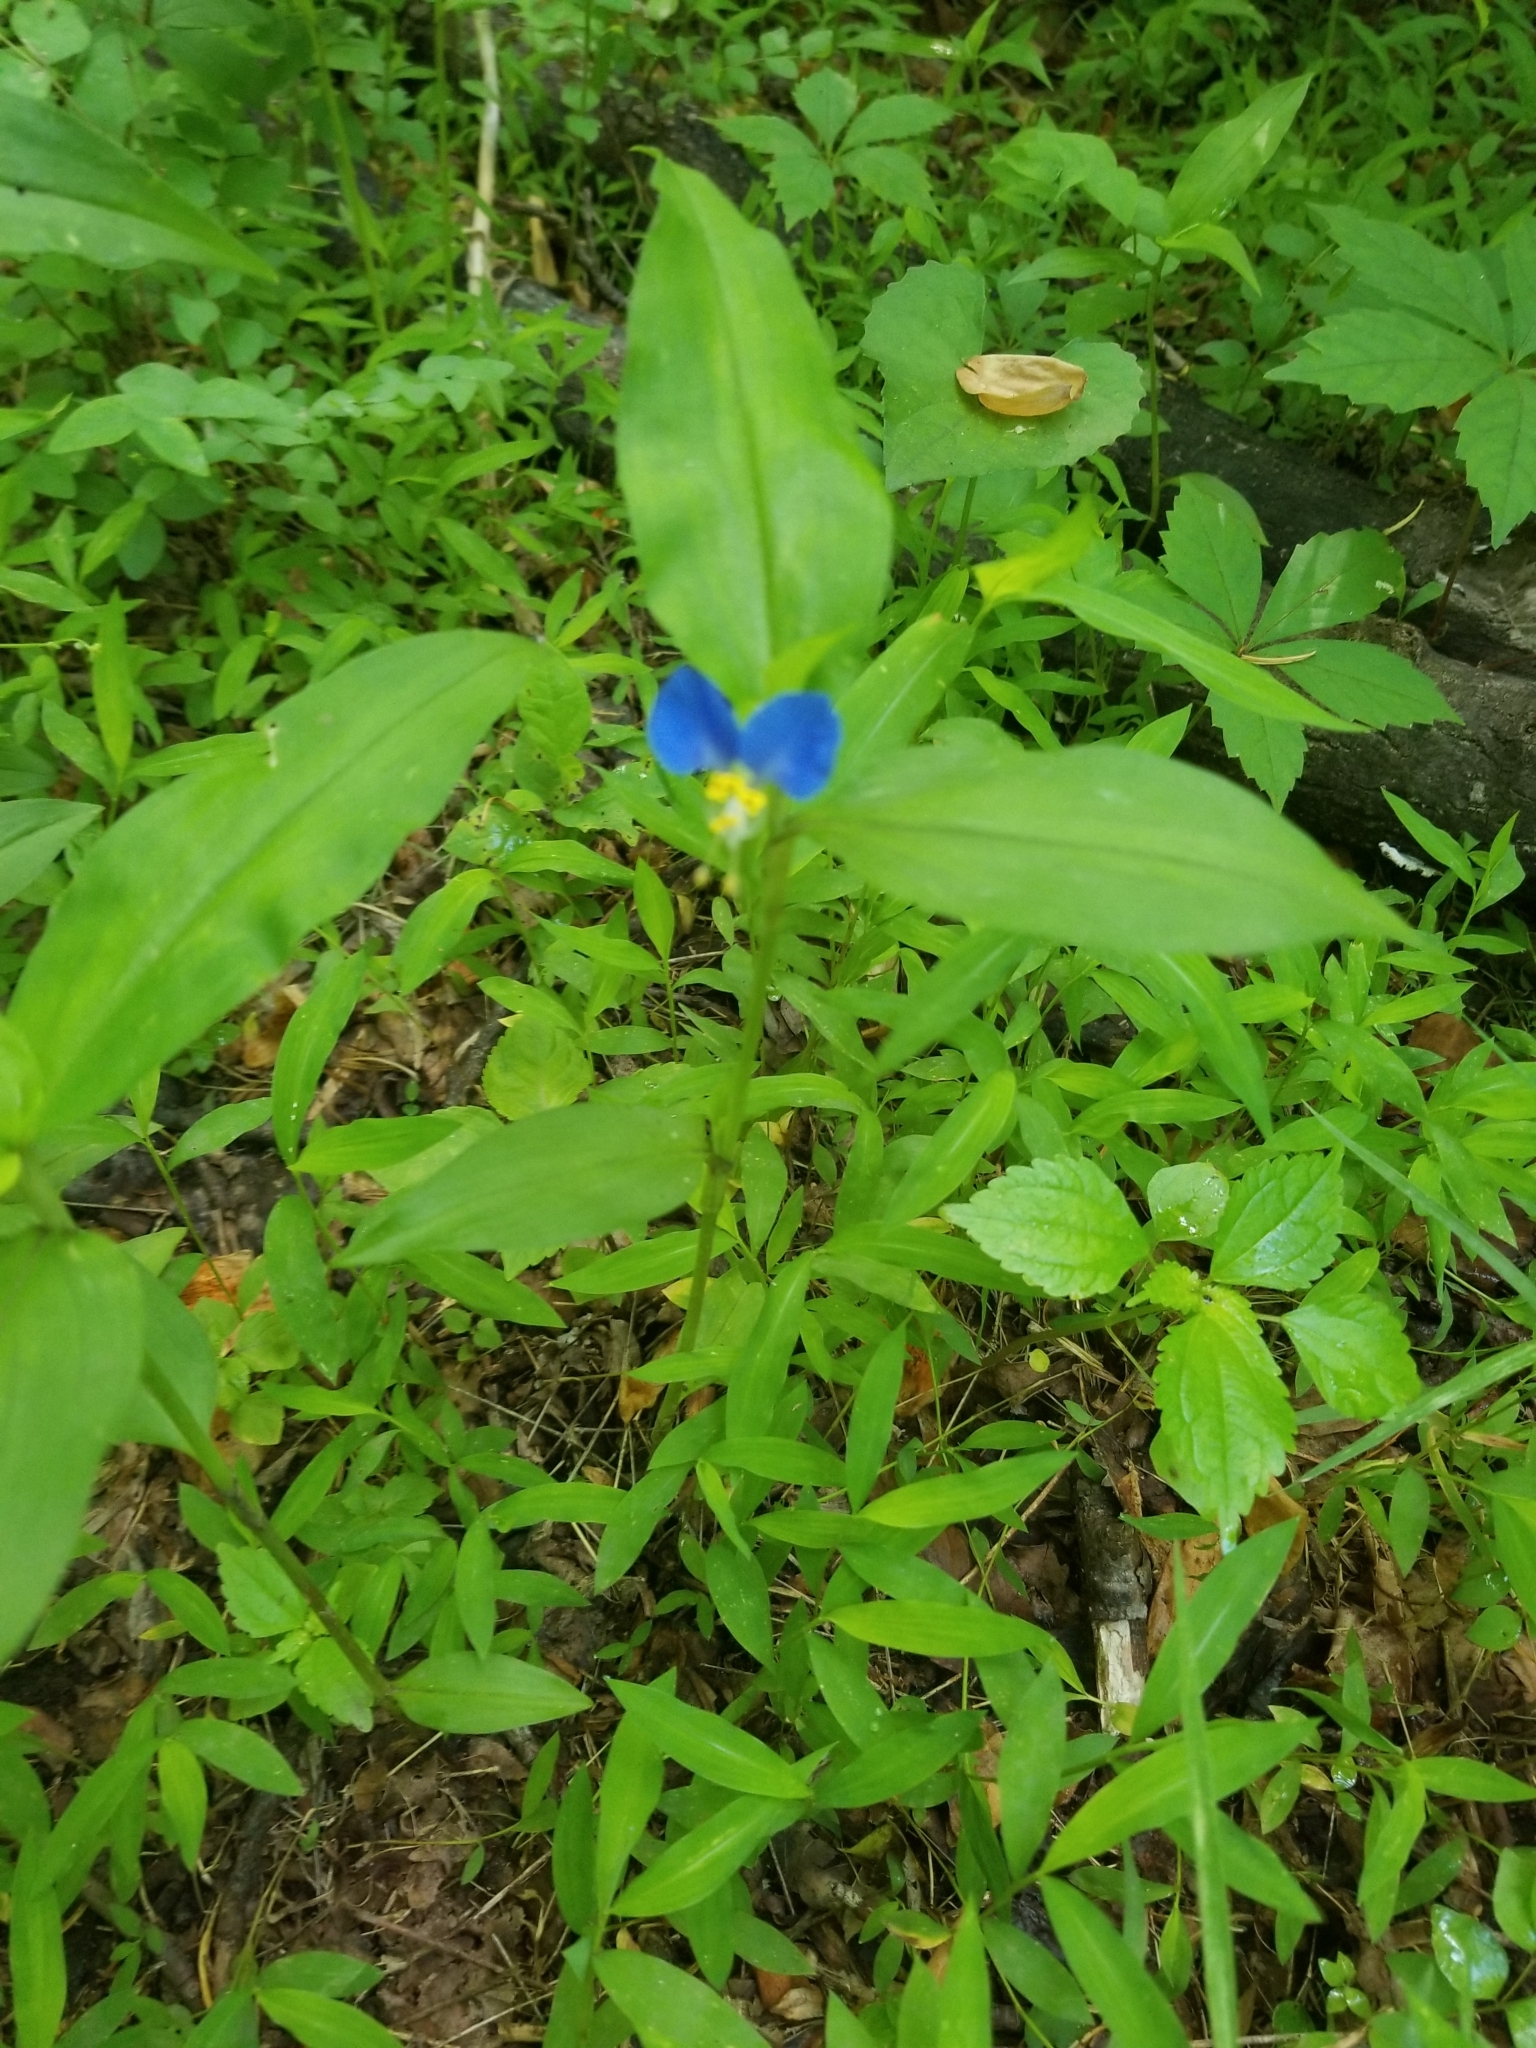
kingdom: Plantae
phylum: Tracheophyta
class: Liliopsida
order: Commelinales
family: Commelinaceae
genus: Commelina
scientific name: Commelina communis
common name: Asiatic dayflower
